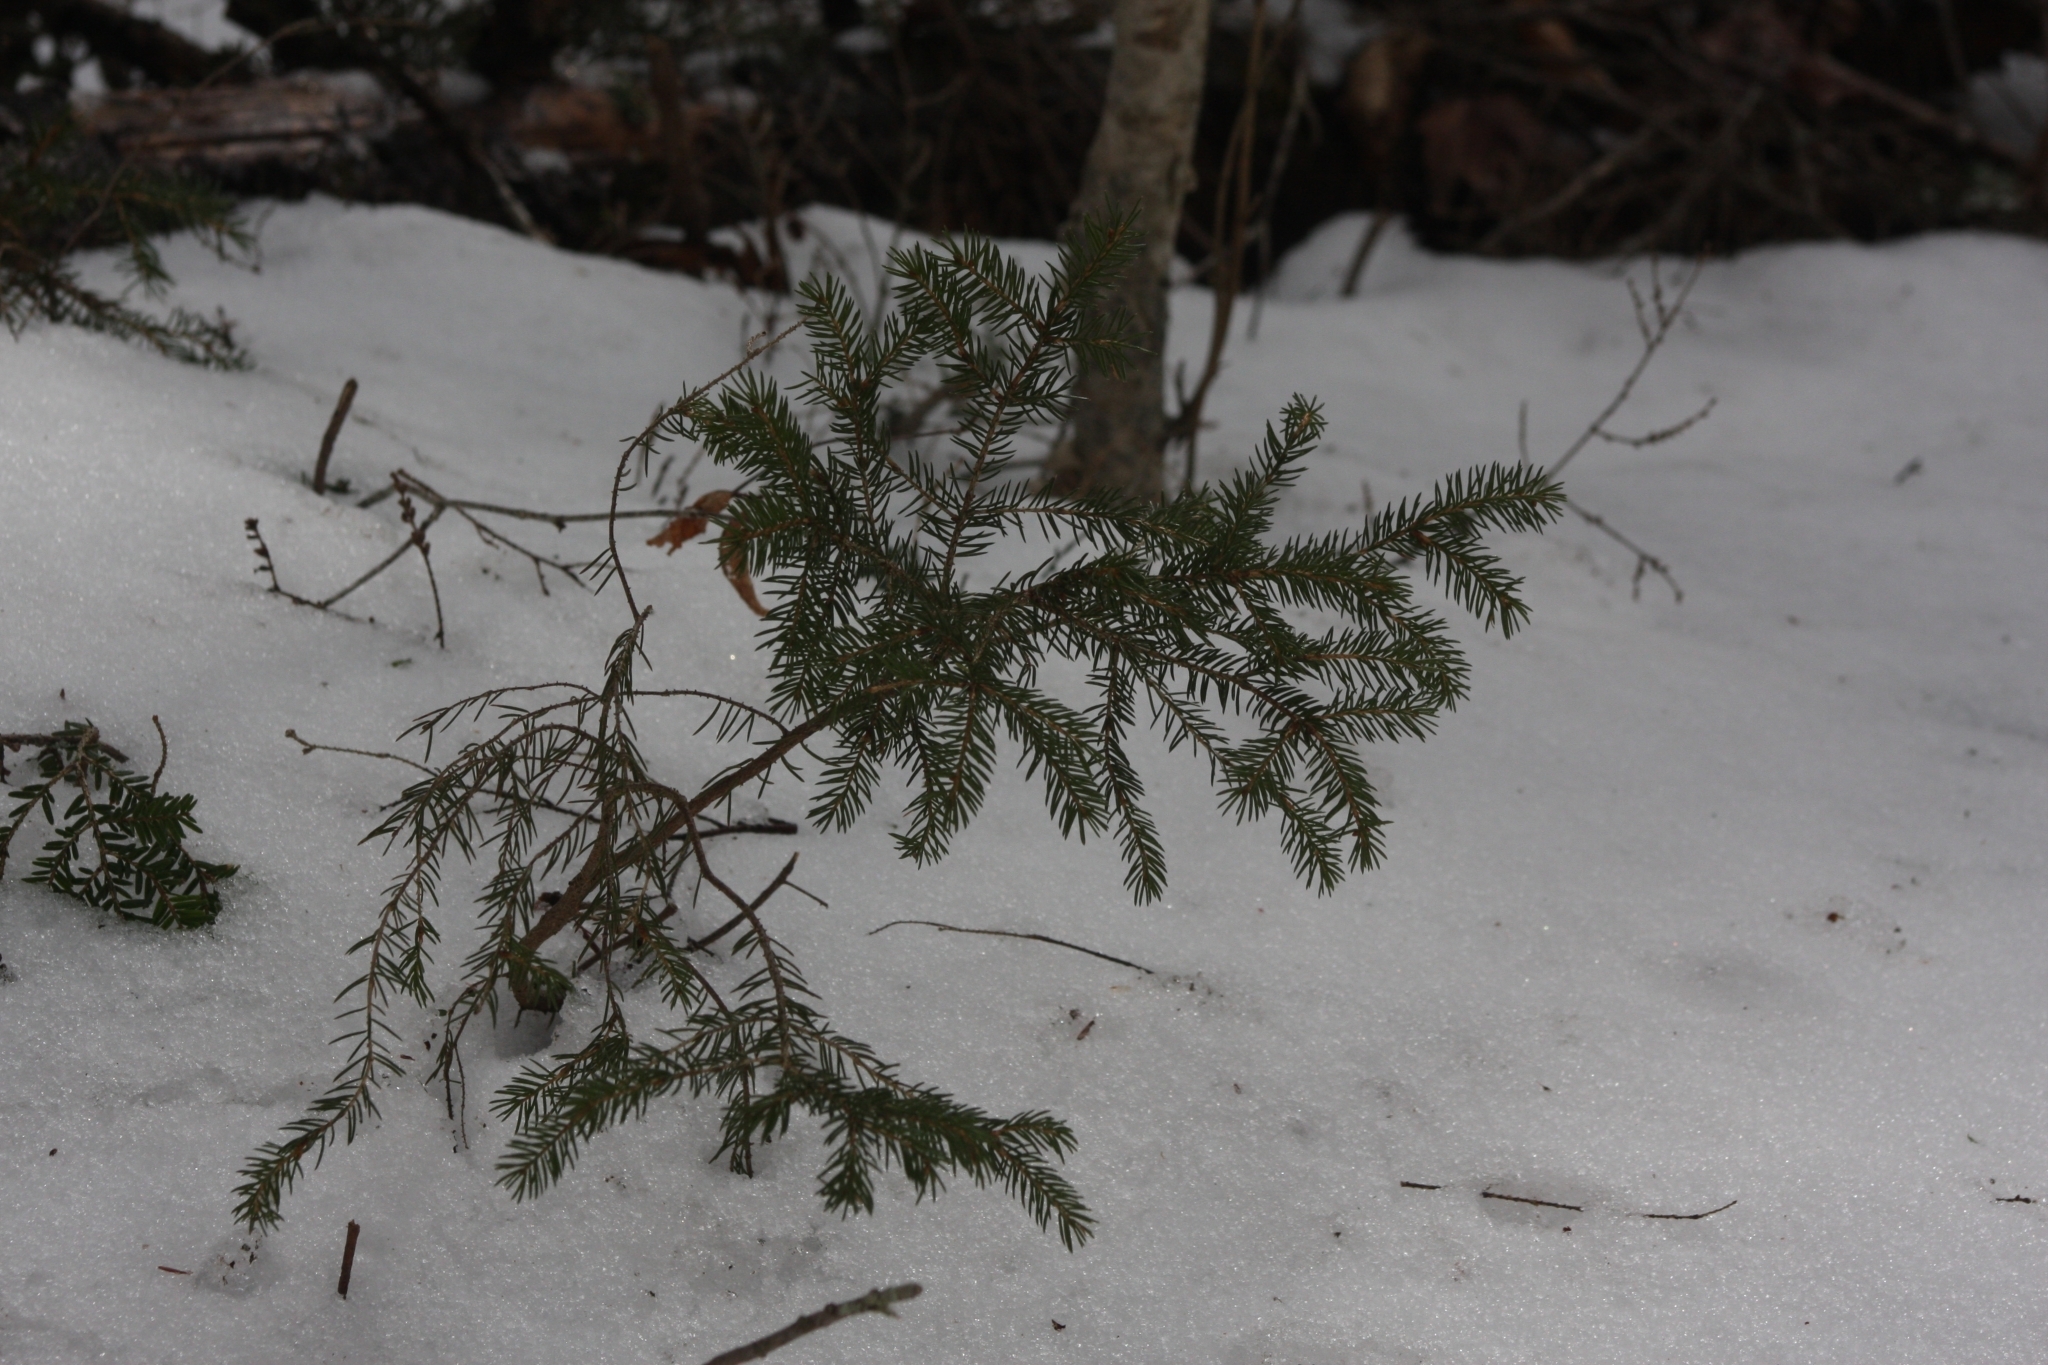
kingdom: Plantae
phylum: Tracheophyta
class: Pinopsida
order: Pinales
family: Pinaceae
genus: Picea
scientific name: Picea rubens
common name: Red spruce
